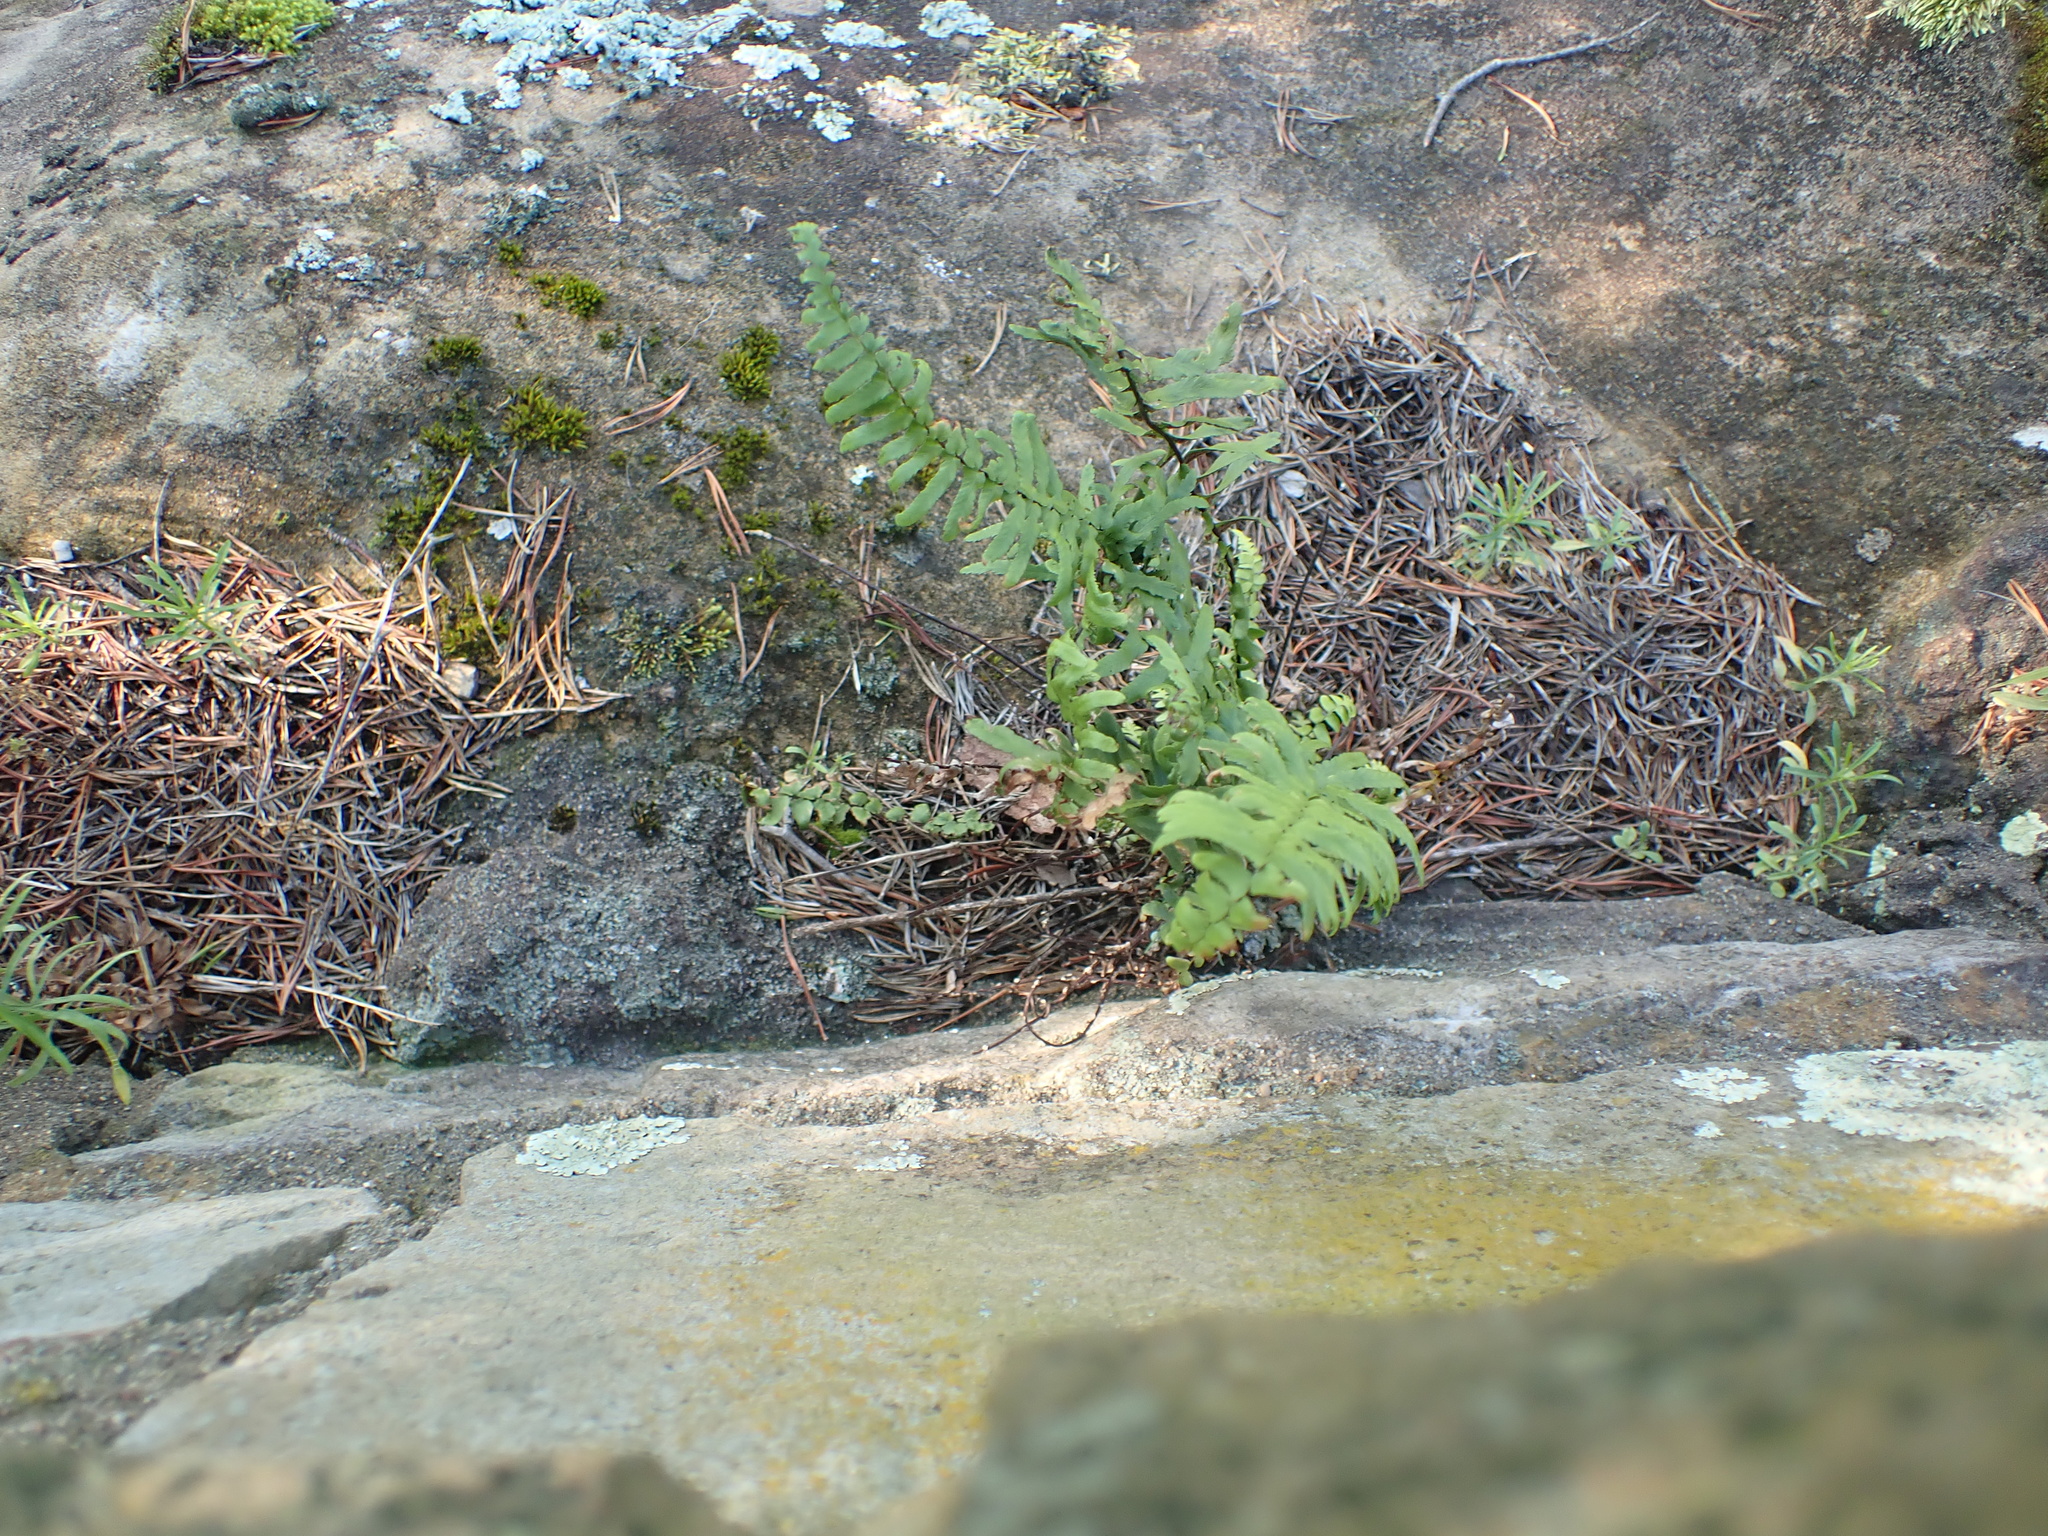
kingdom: Plantae
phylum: Tracheophyta
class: Polypodiopsida
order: Polypodiales
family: Aspleniaceae
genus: Asplenium
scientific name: Asplenium platyneuron
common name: Ebony spleenwort
